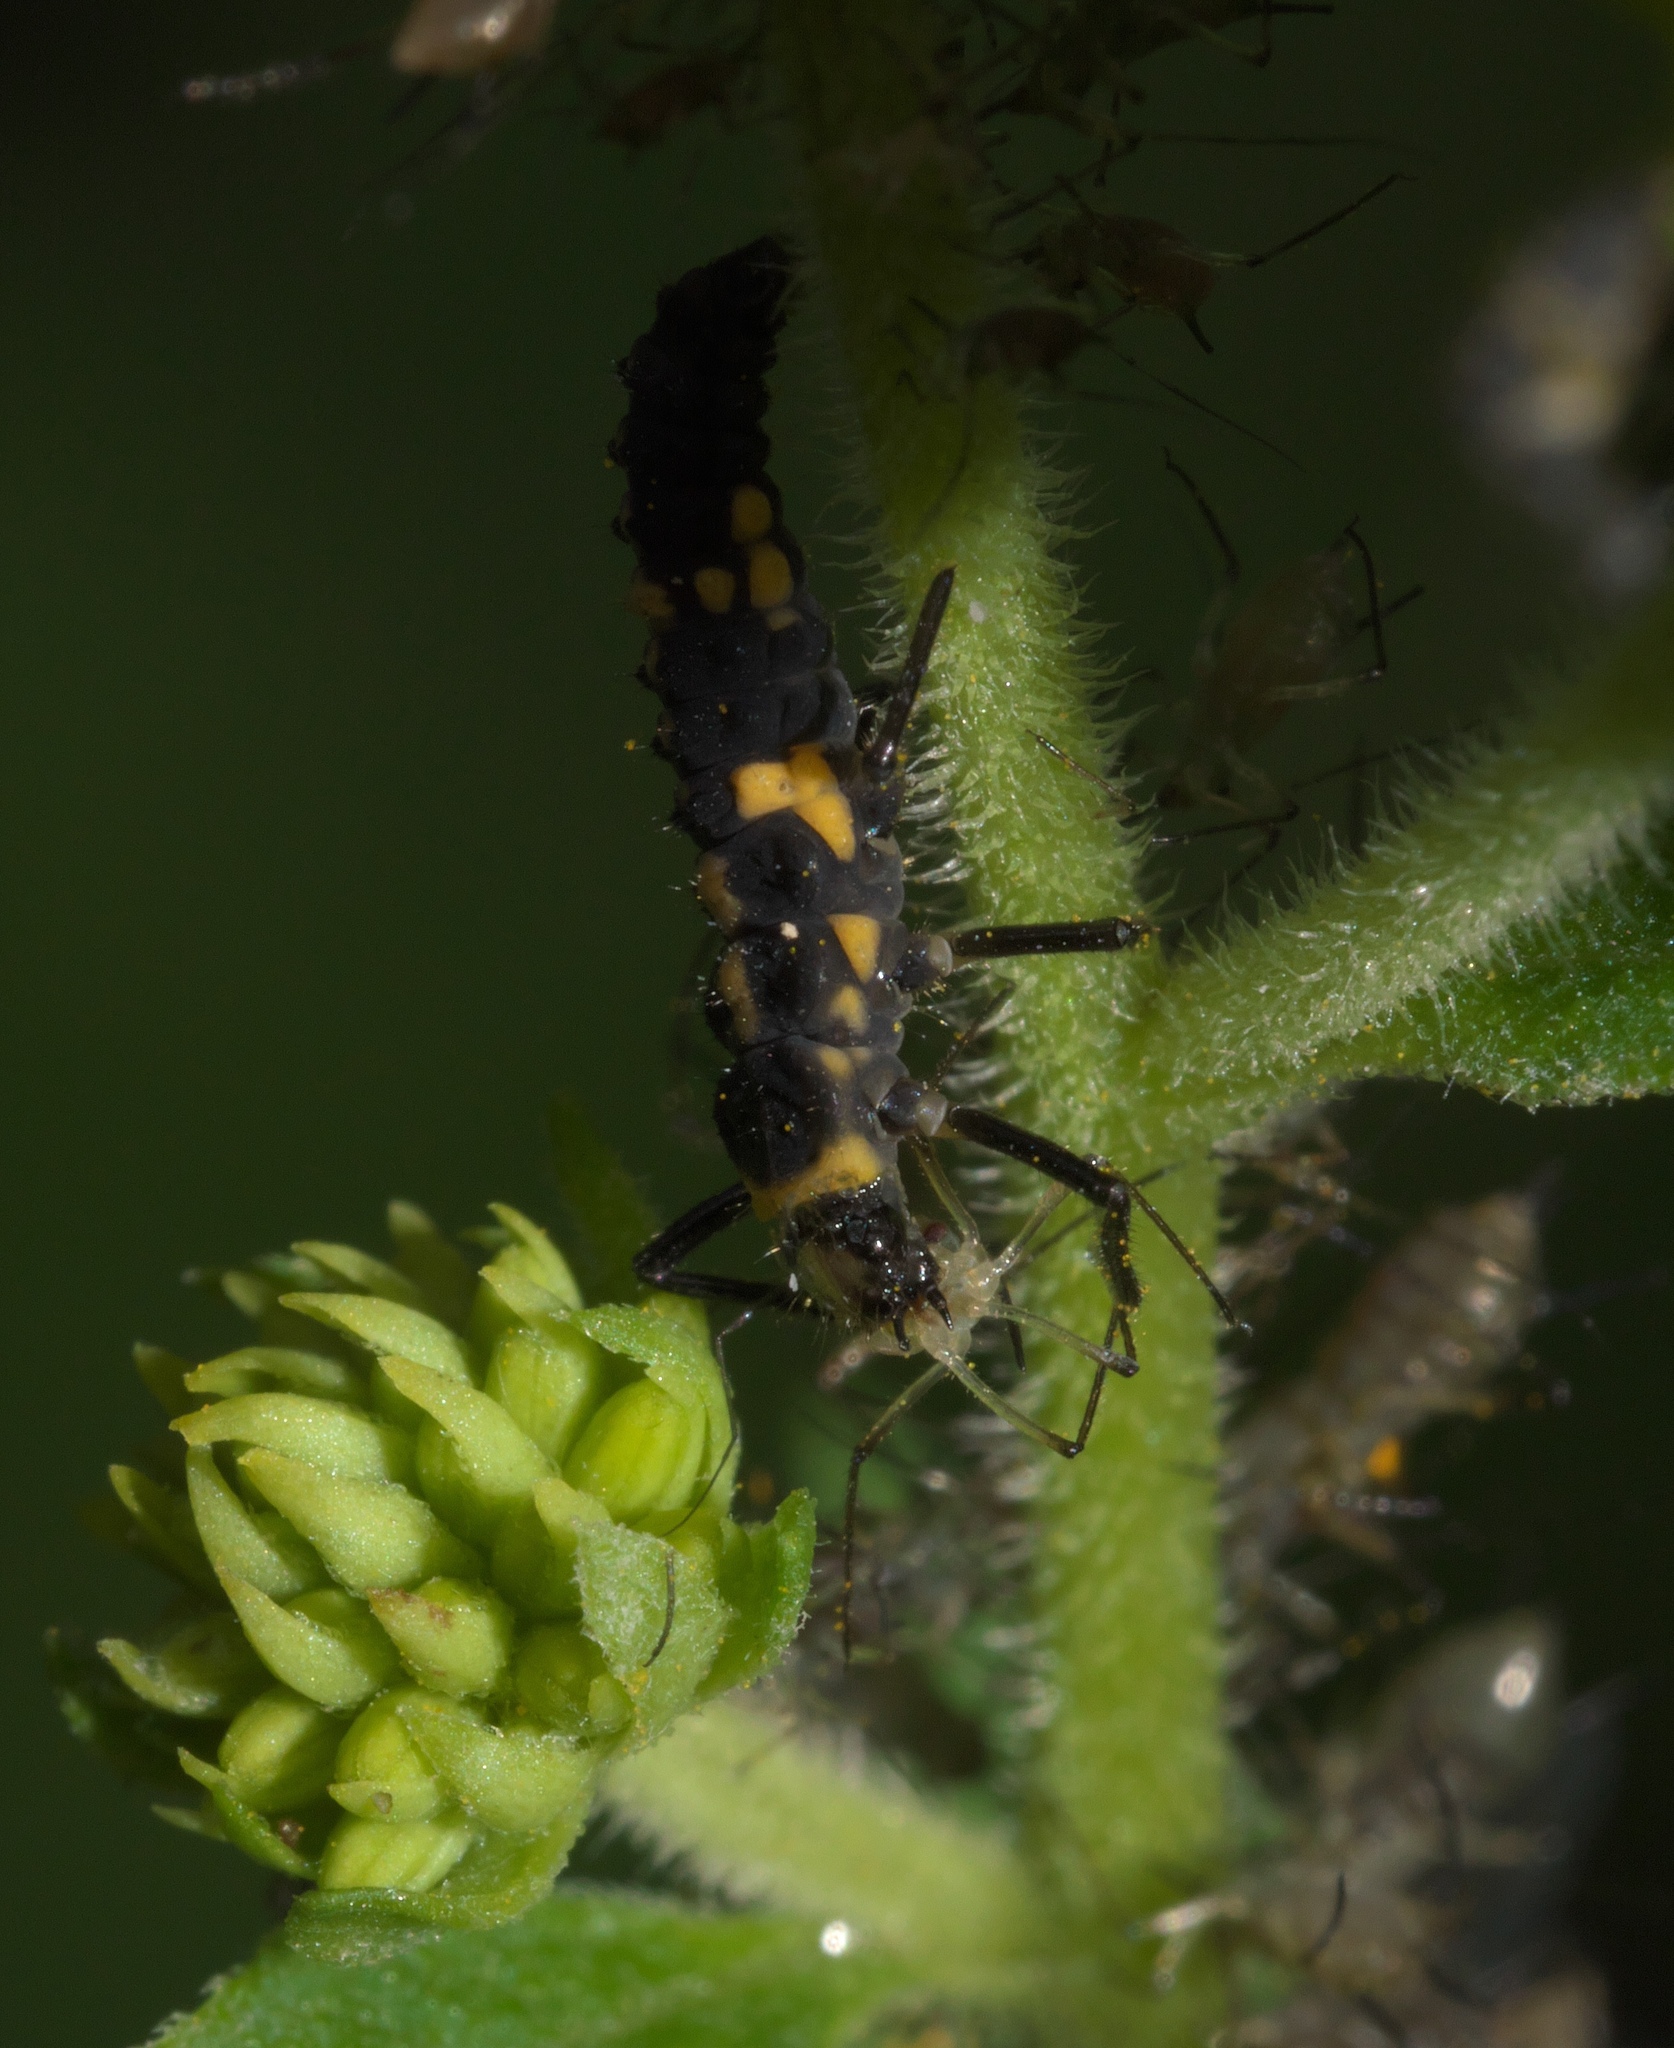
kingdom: Animalia
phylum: Arthropoda
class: Insecta
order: Coleoptera
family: Coccinellidae
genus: Cycloneda
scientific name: Cycloneda munda
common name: Polished lady beetle
